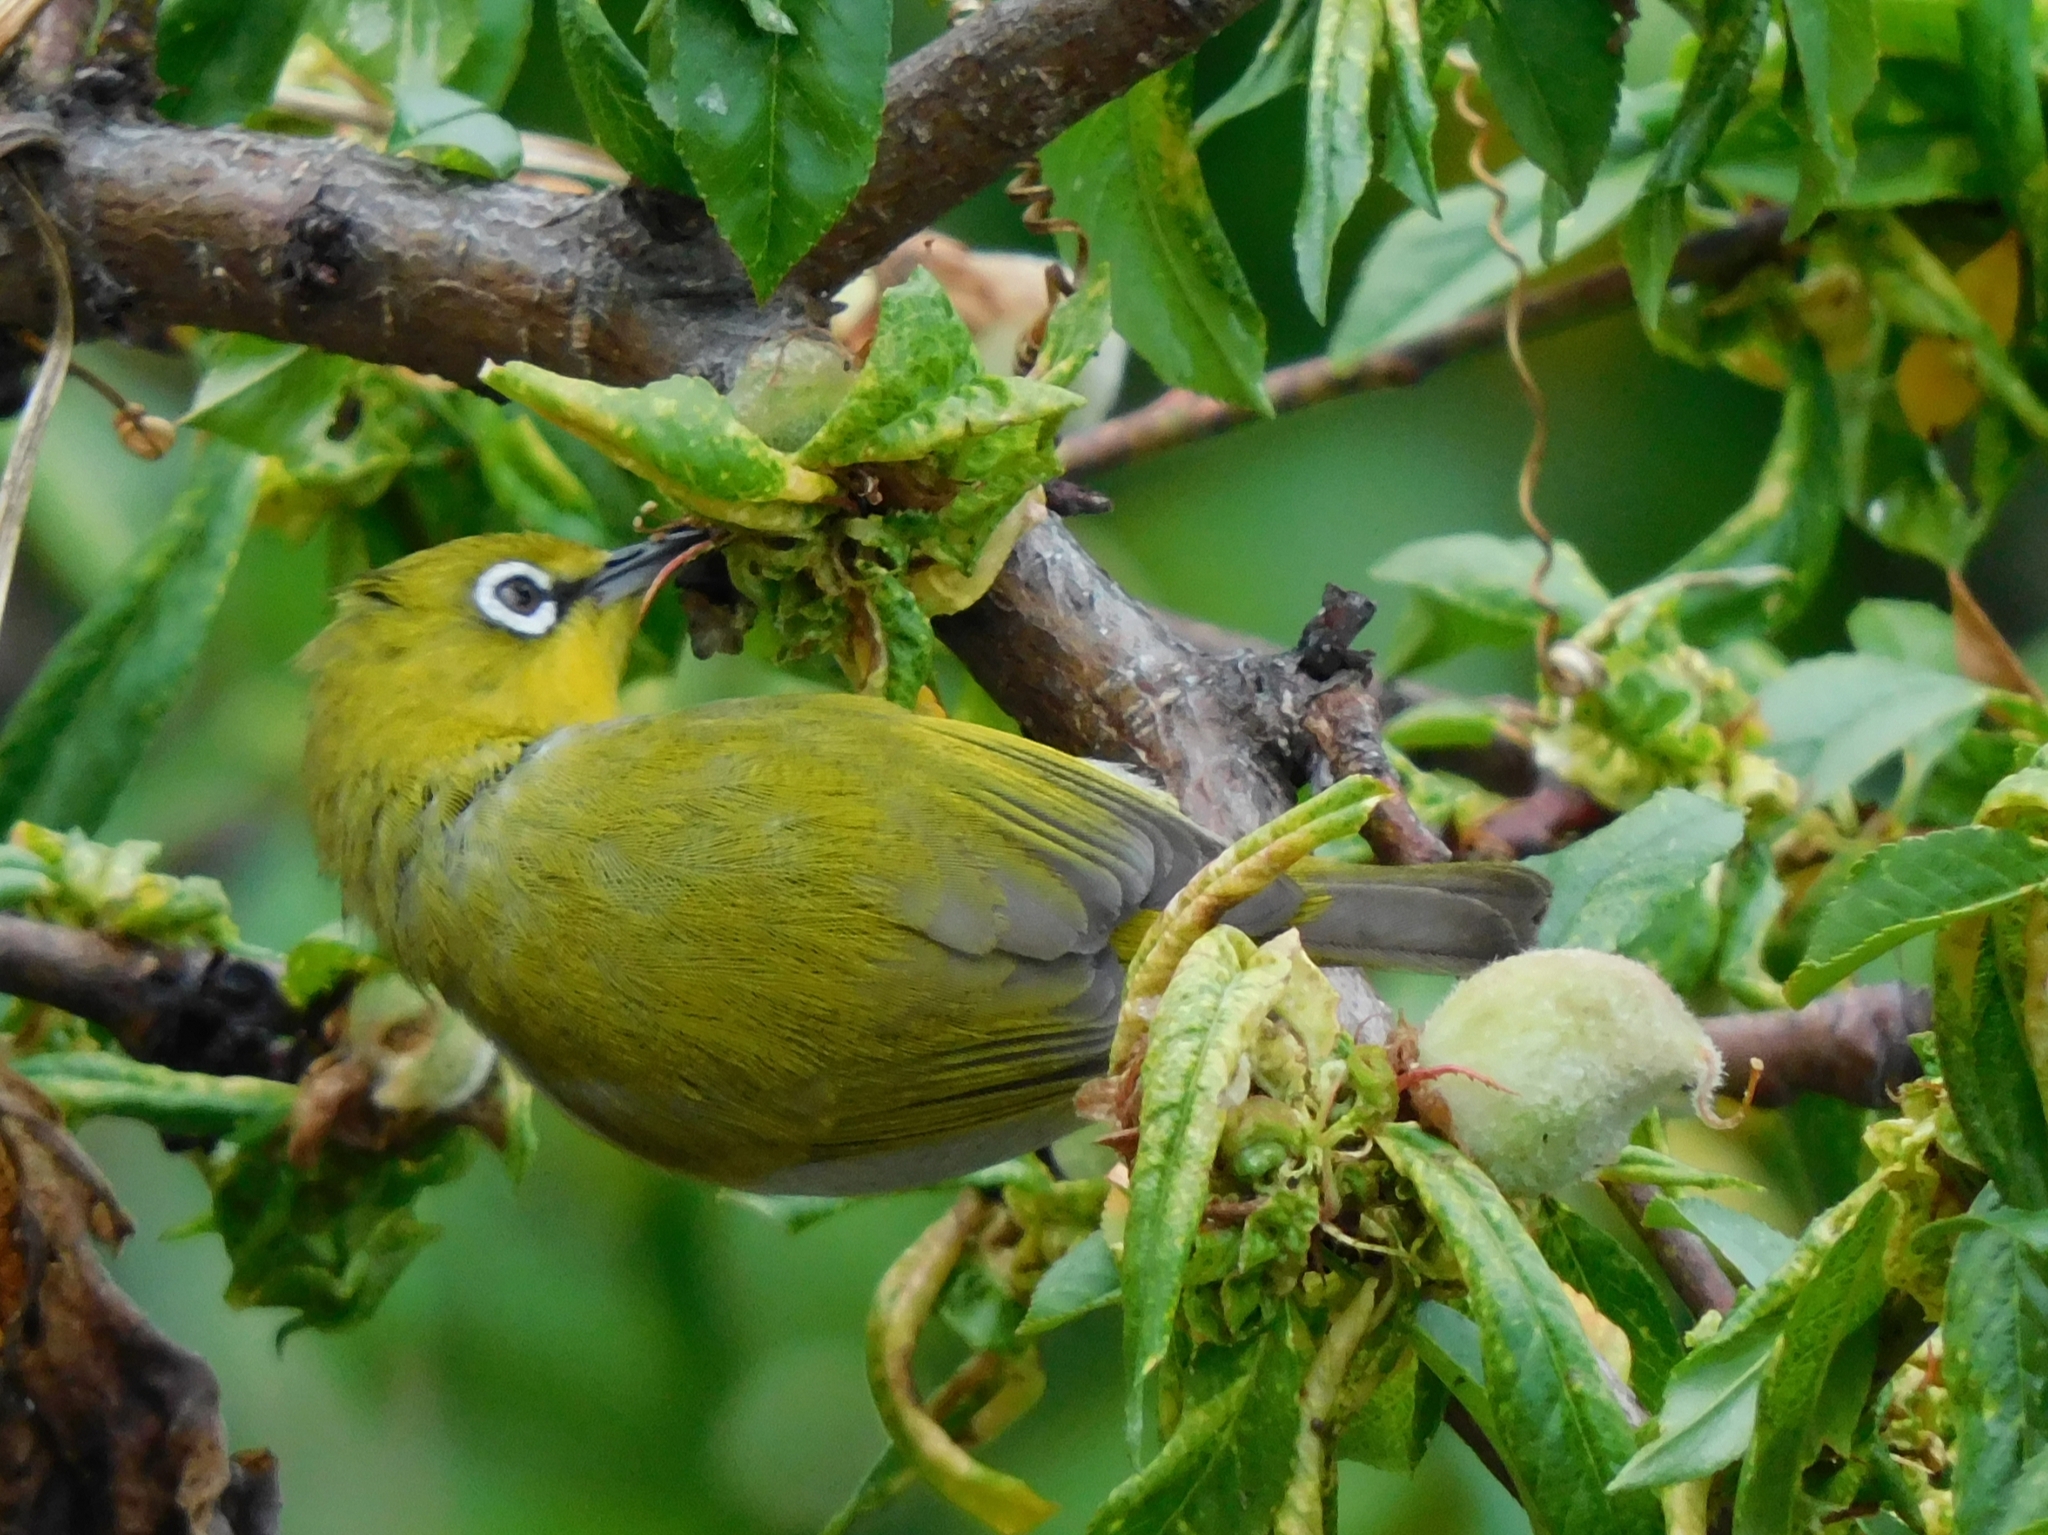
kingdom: Animalia
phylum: Chordata
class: Aves
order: Passeriformes
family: Zosteropidae
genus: Zosterops
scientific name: Zosterops palpebrosus
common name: Oriental white-eye
